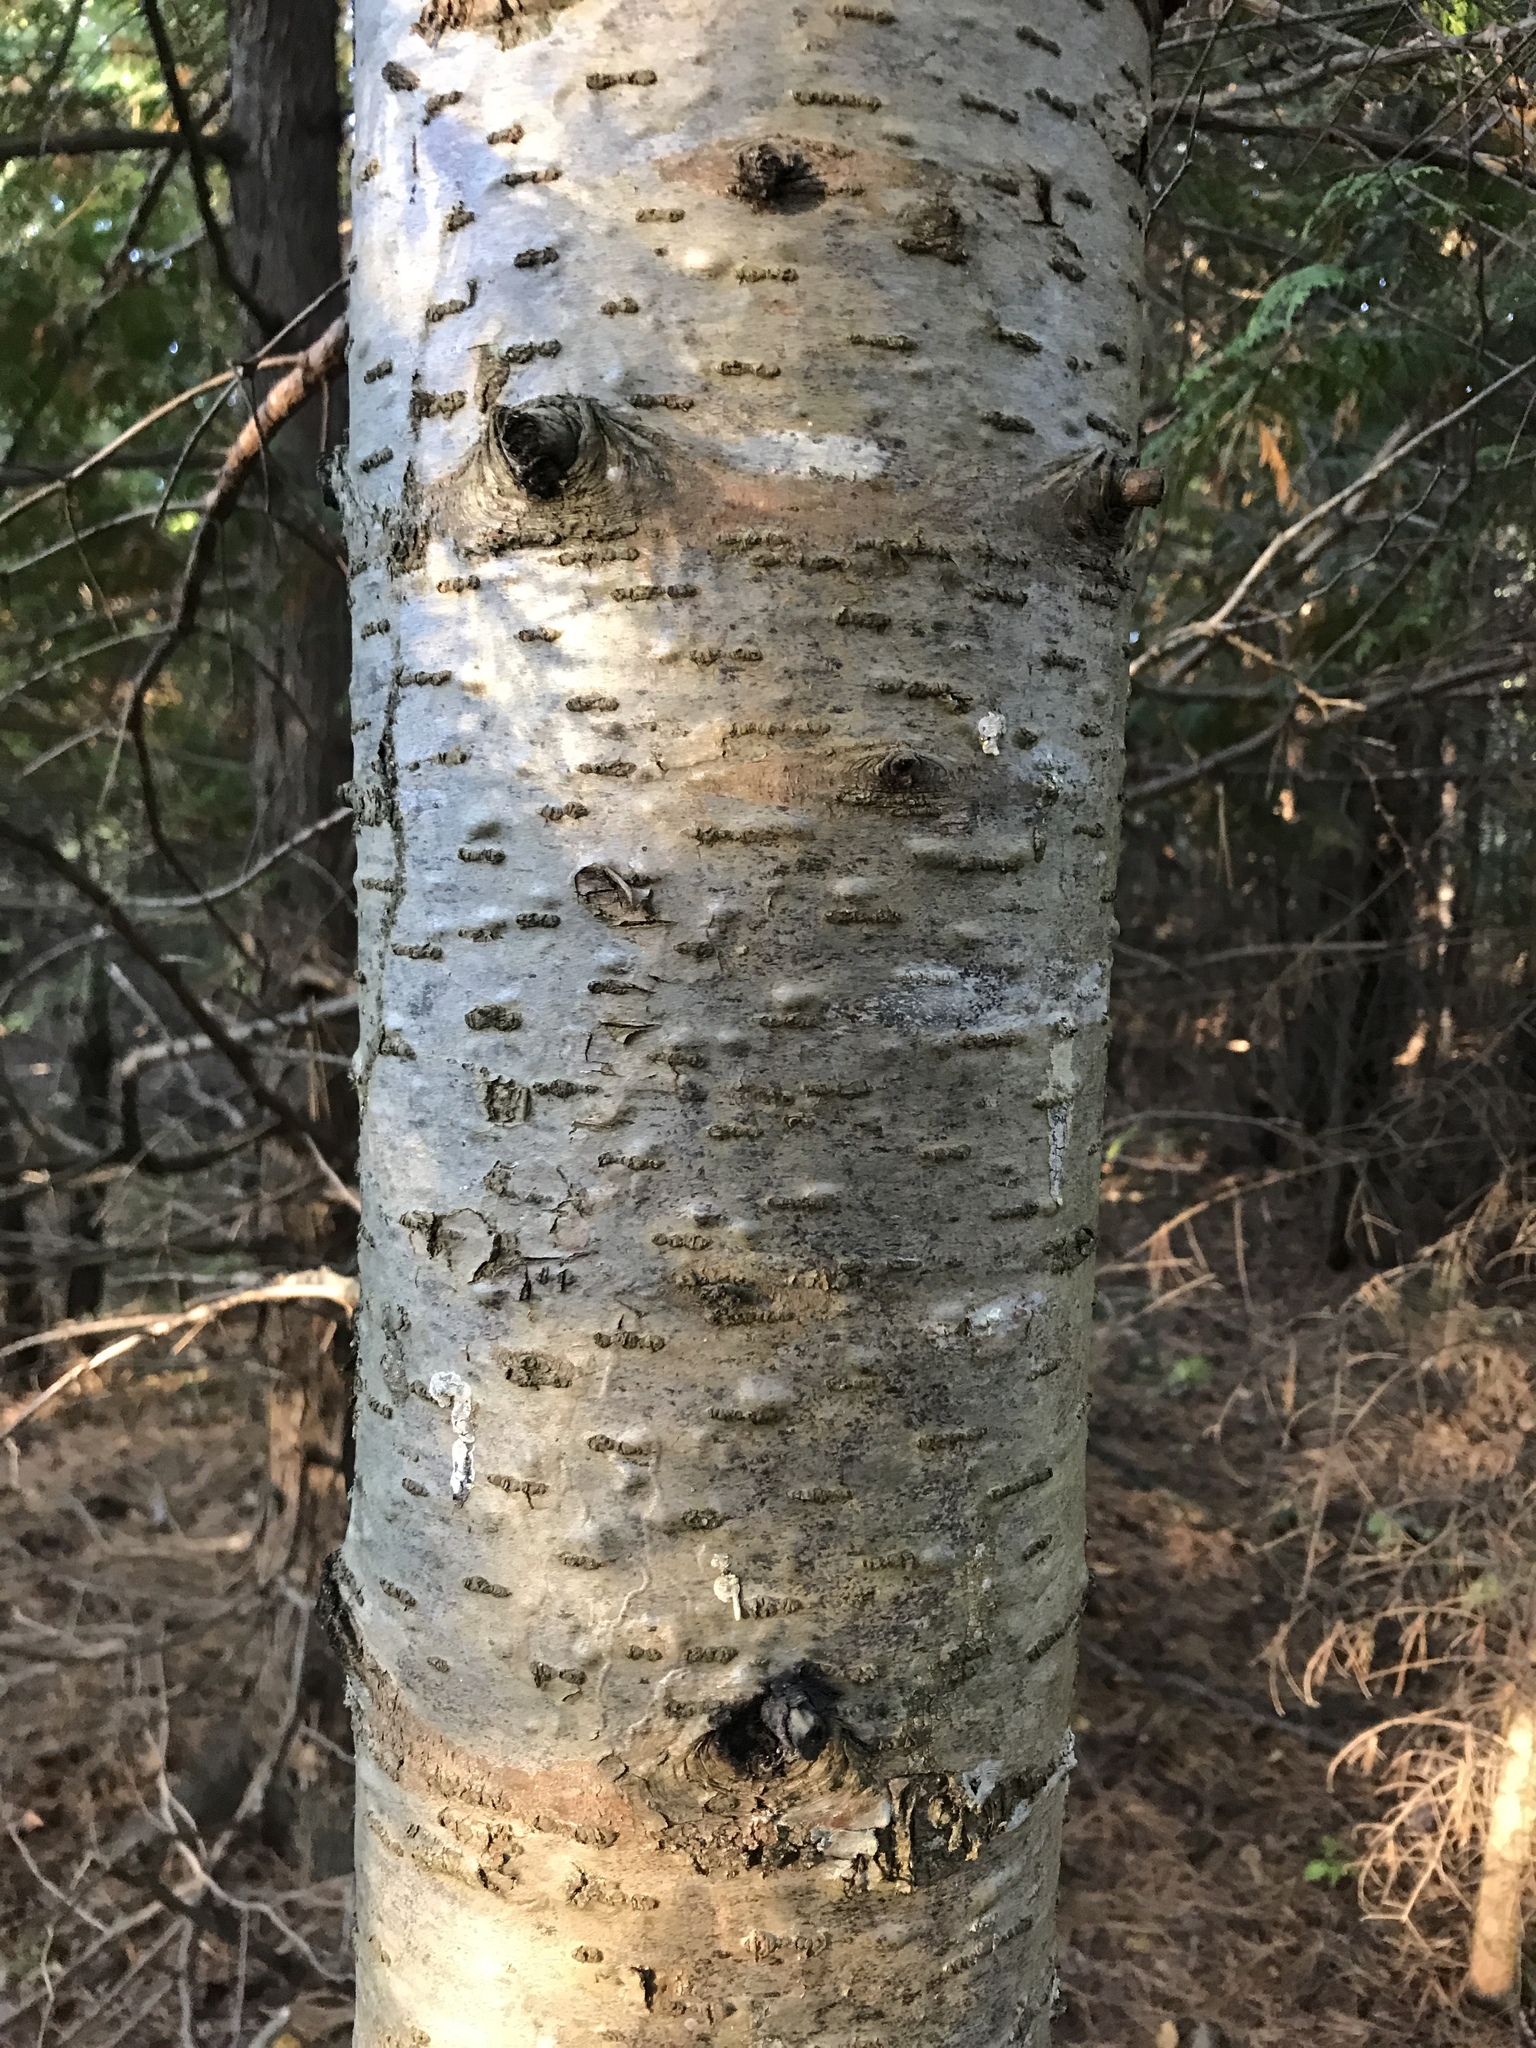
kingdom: Plantae
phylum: Tracheophyta
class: Pinopsida
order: Pinales
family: Pinaceae
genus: Abies
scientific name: Abies balsamea
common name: Balsam fir
